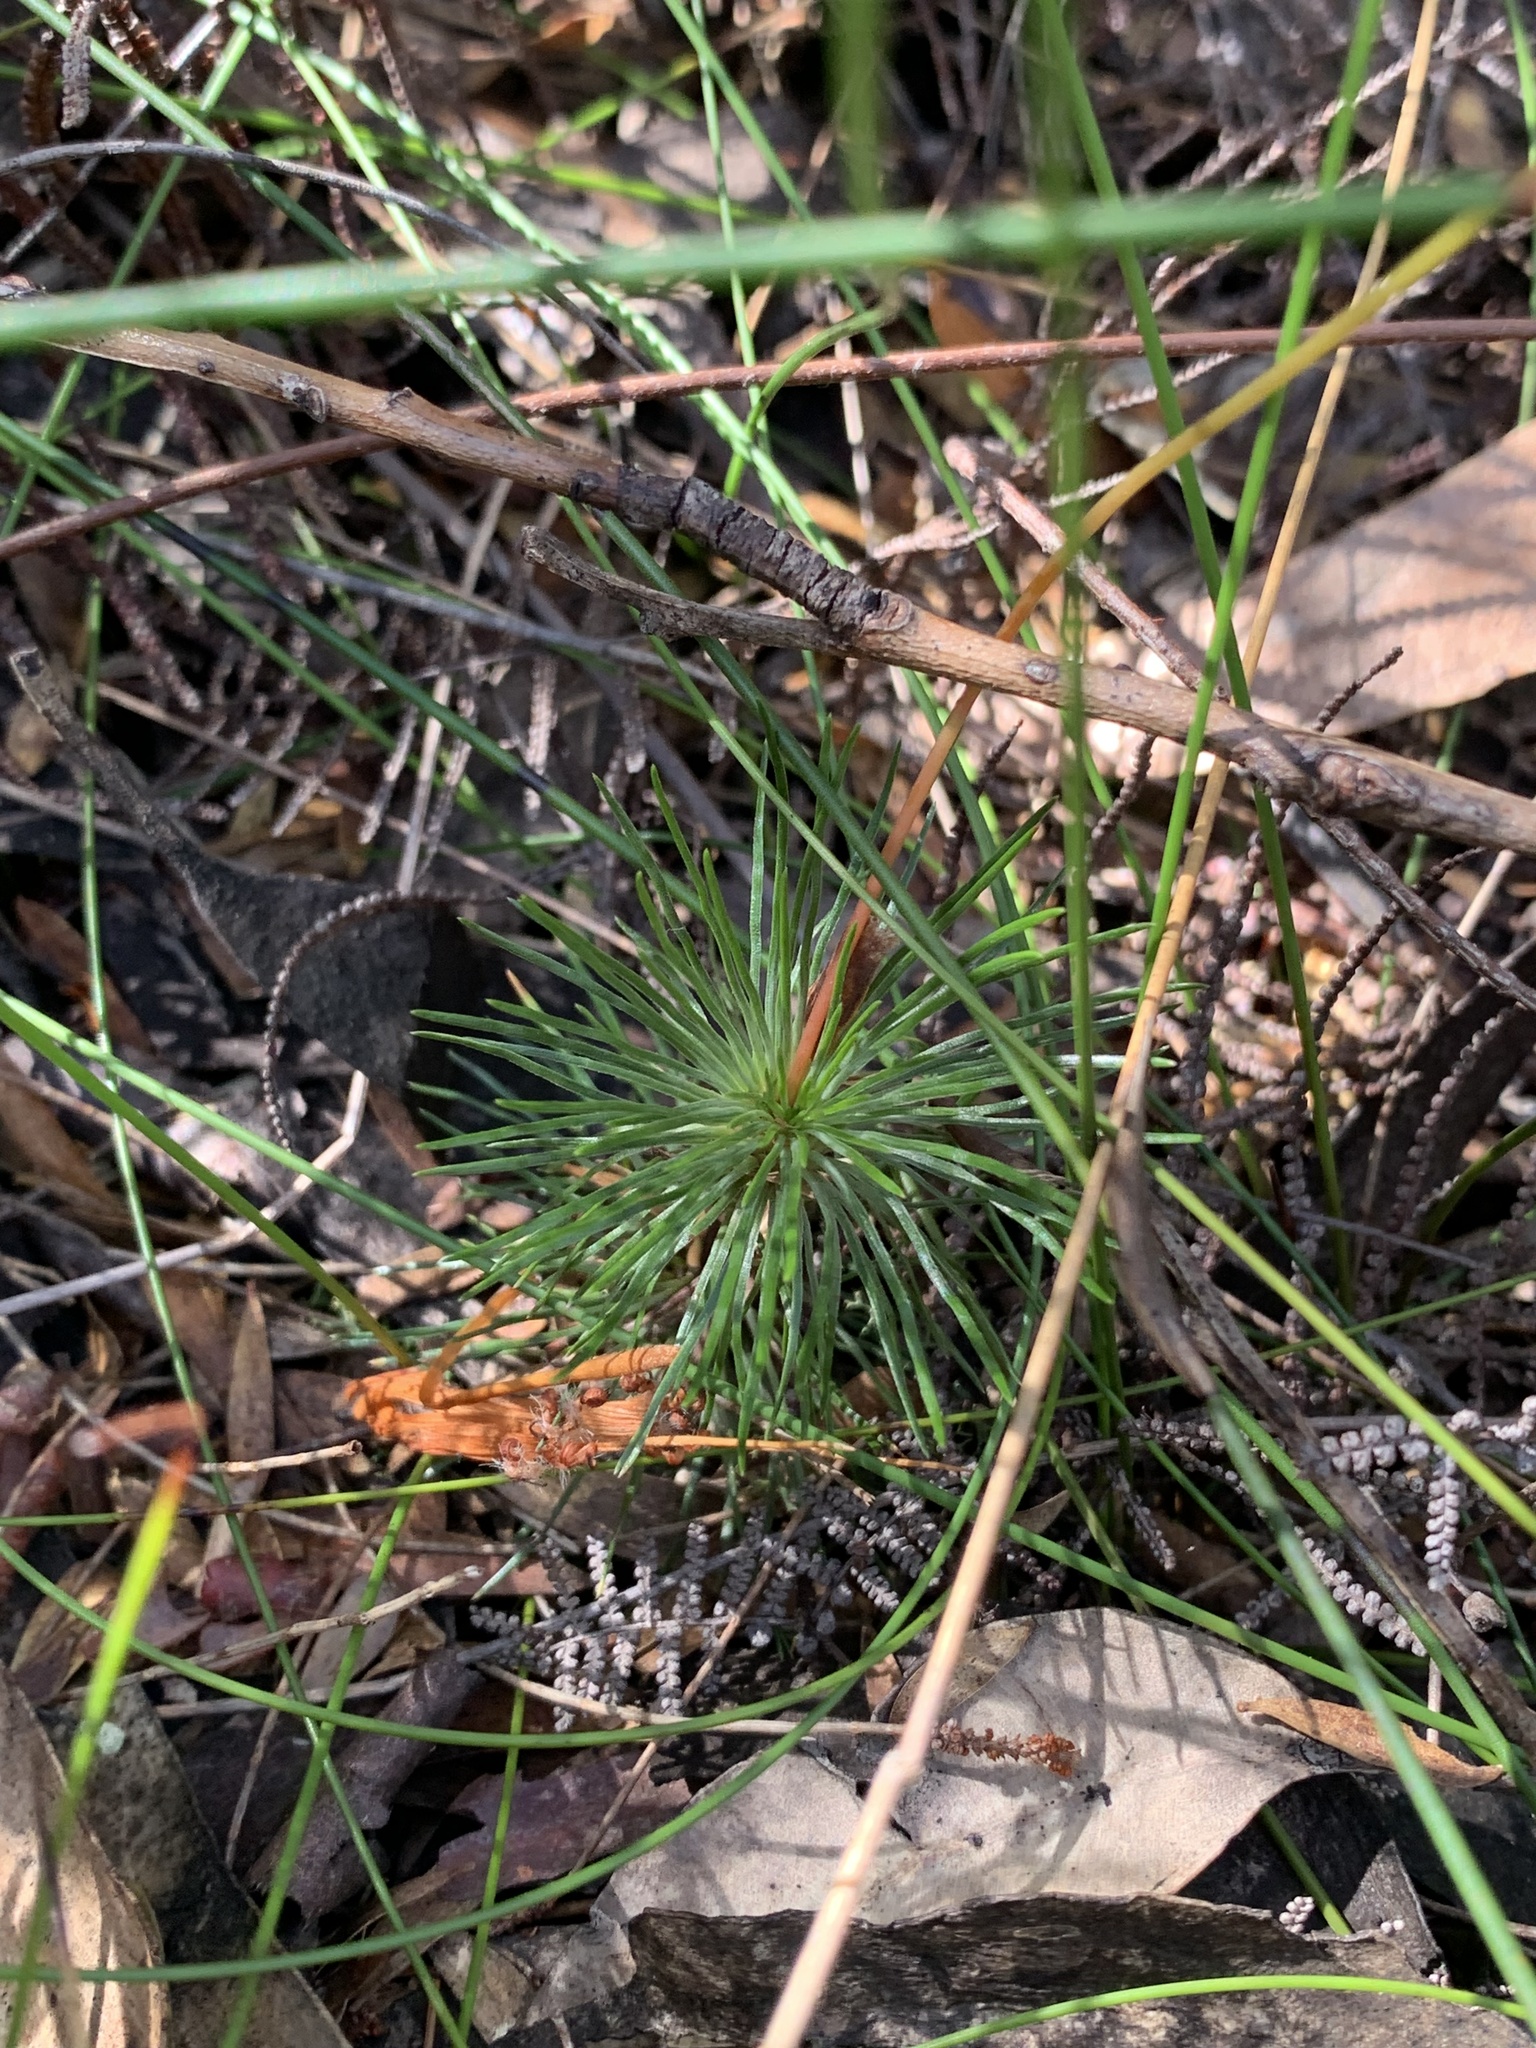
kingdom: Plantae
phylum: Tracheophyta
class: Magnoliopsida
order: Asterales
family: Stylidiaceae
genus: Stylidium
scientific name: Stylidium lineare
